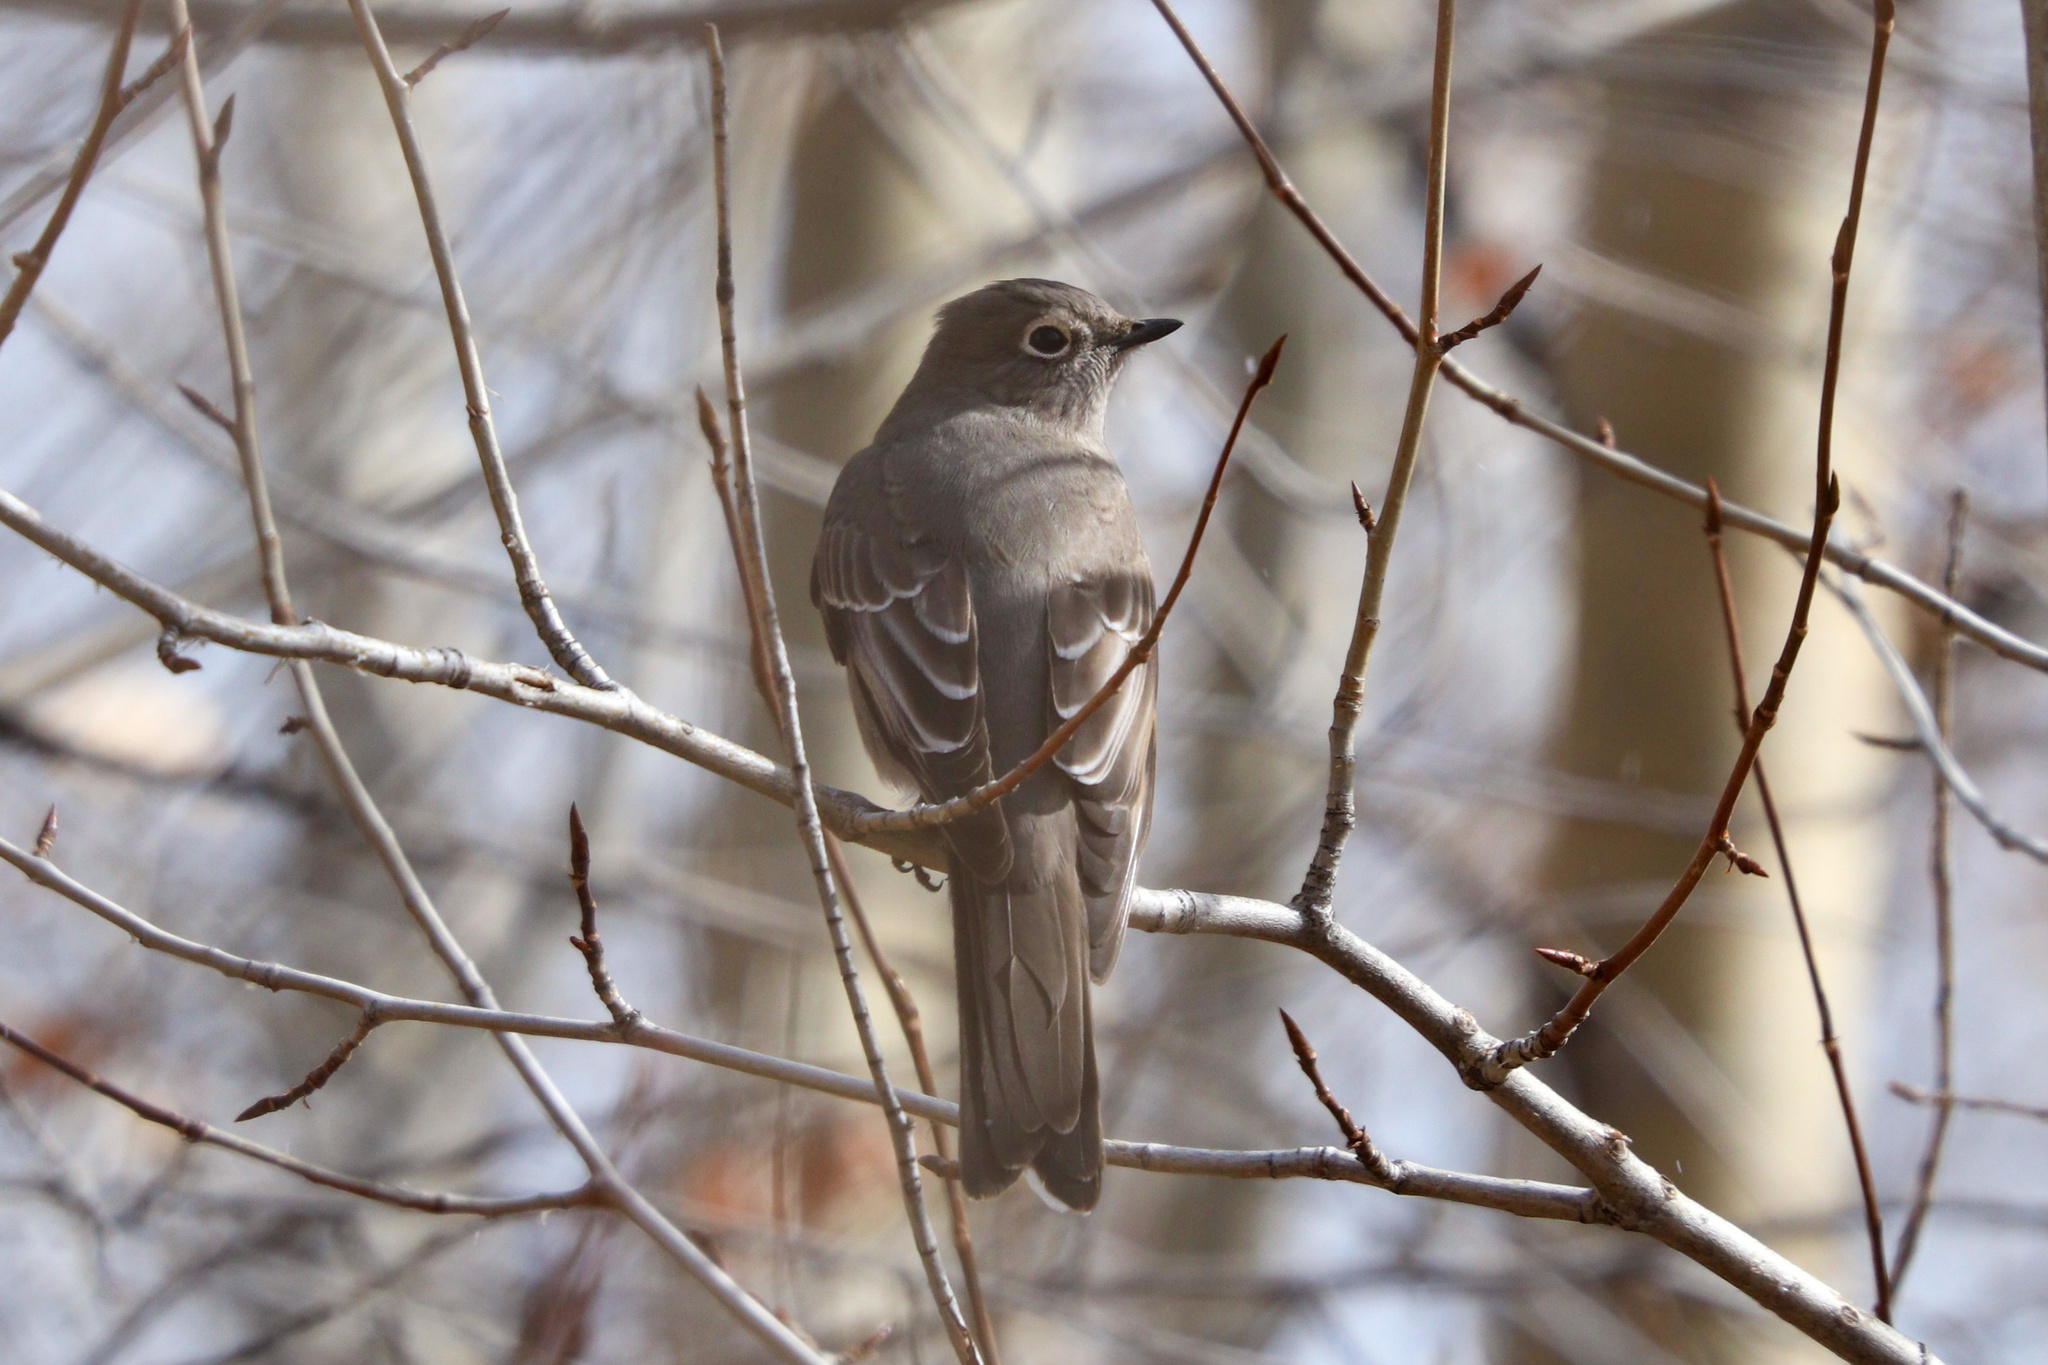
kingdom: Animalia
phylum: Chordata
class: Aves
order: Passeriformes
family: Turdidae
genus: Myadestes
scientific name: Myadestes townsendi
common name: Townsend's solitaire
